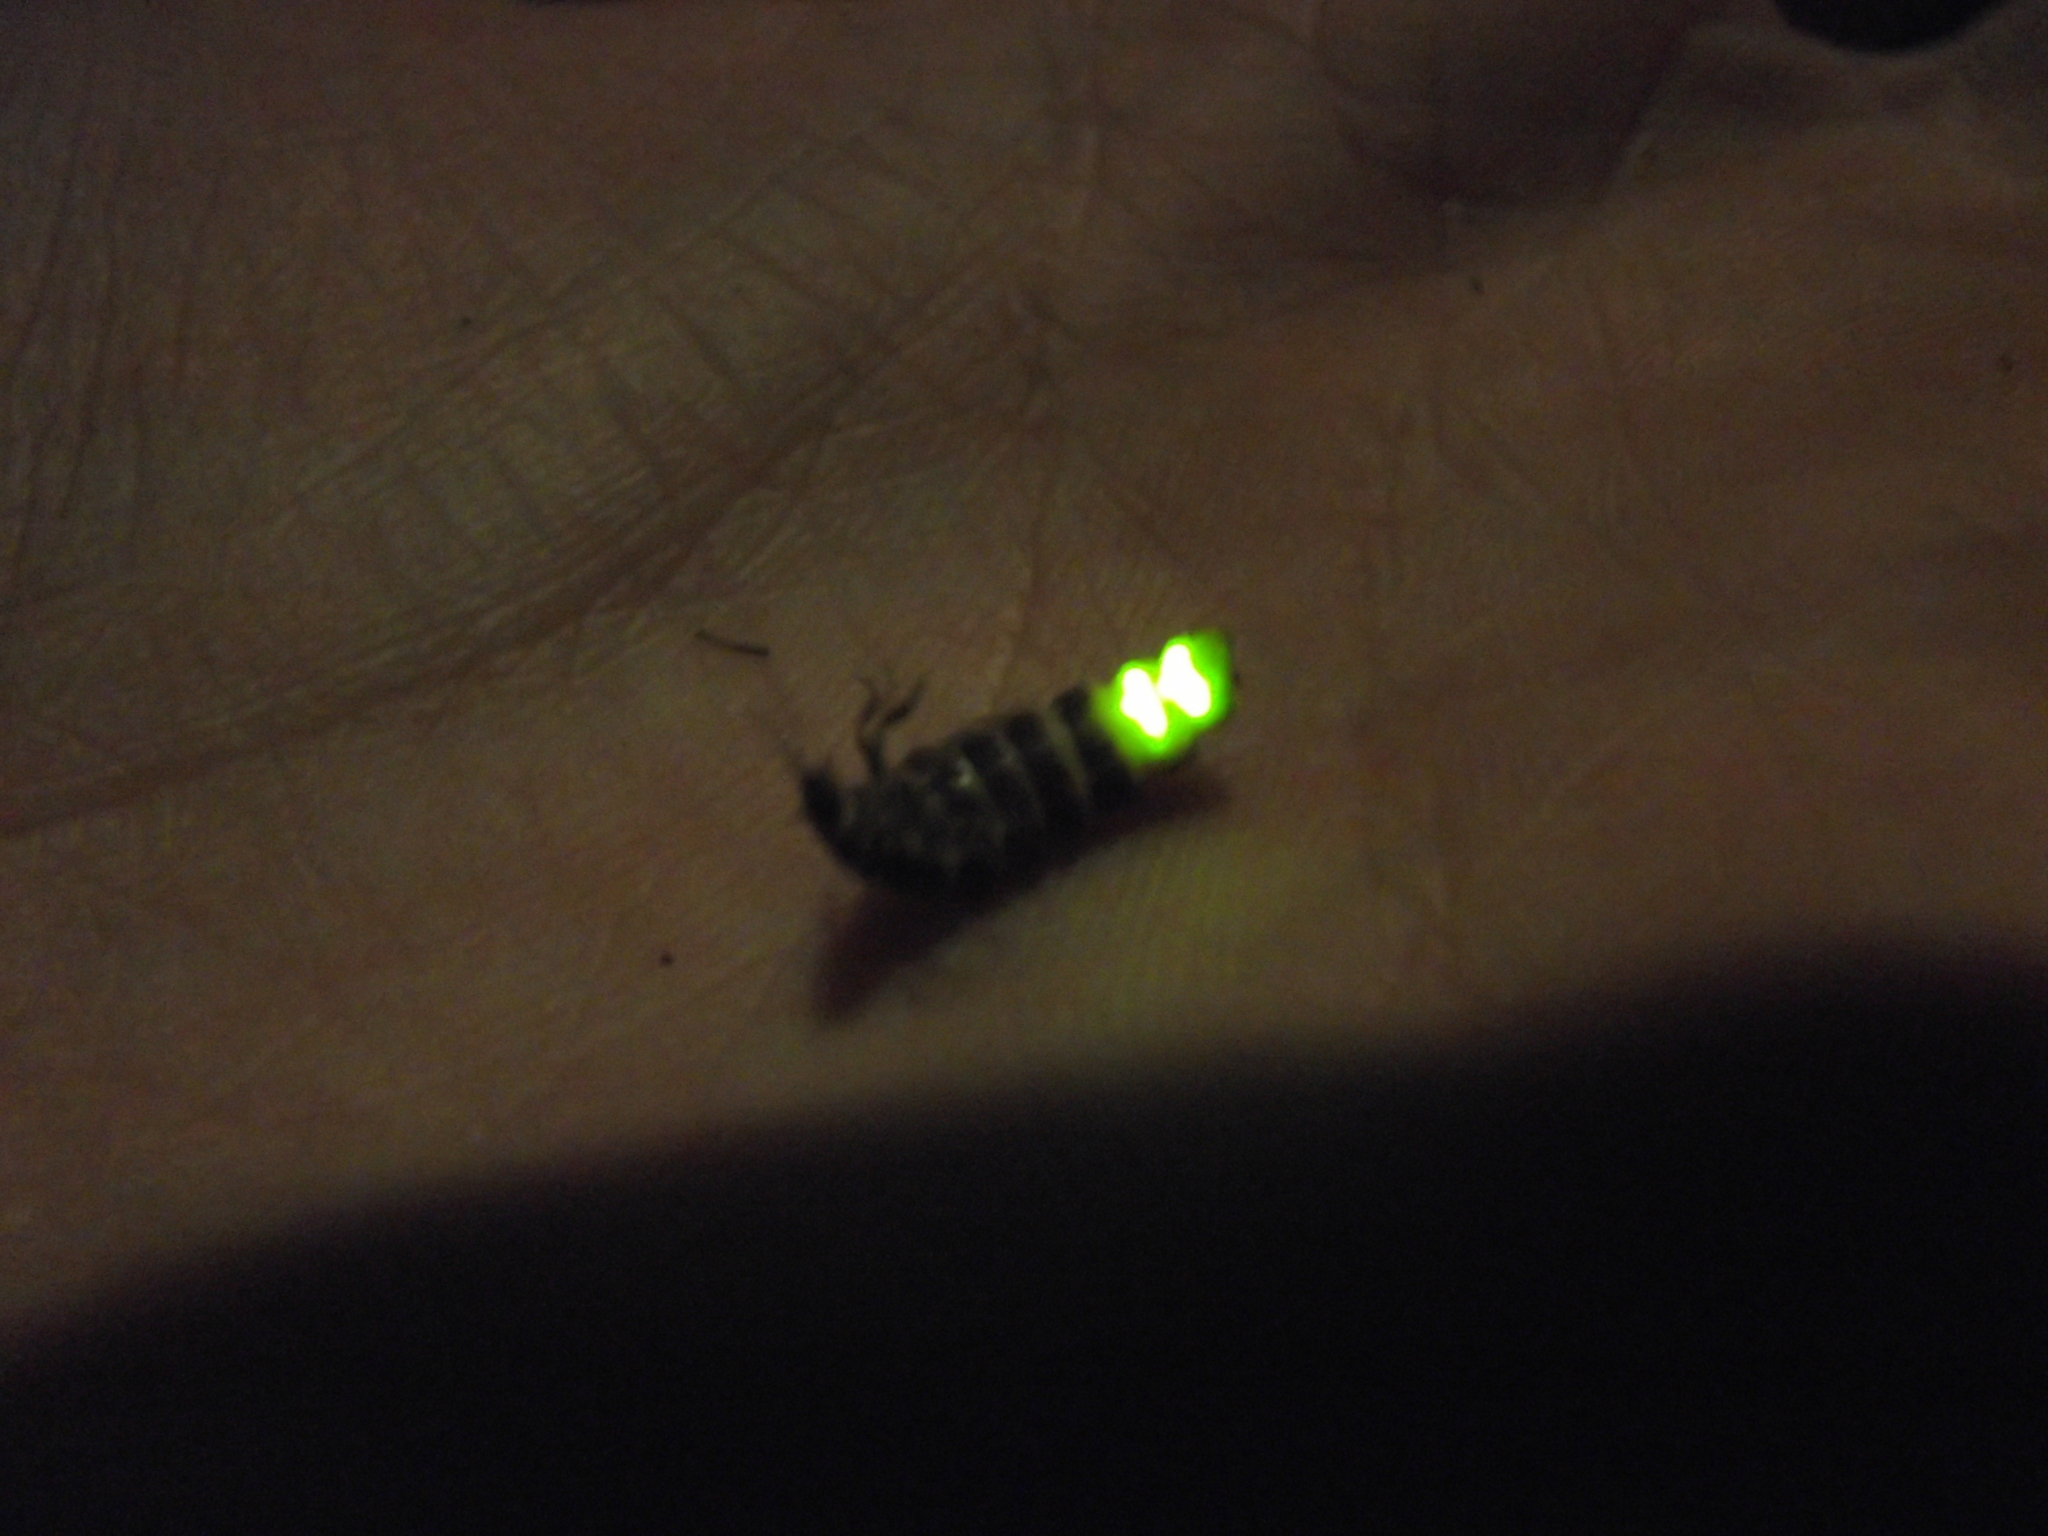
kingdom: Animalia
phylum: Arthropoda
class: Insecta
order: Coleoptera
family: Lampyridae
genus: Lampyris
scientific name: Lampyris noctiluca
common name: Glow-worm
